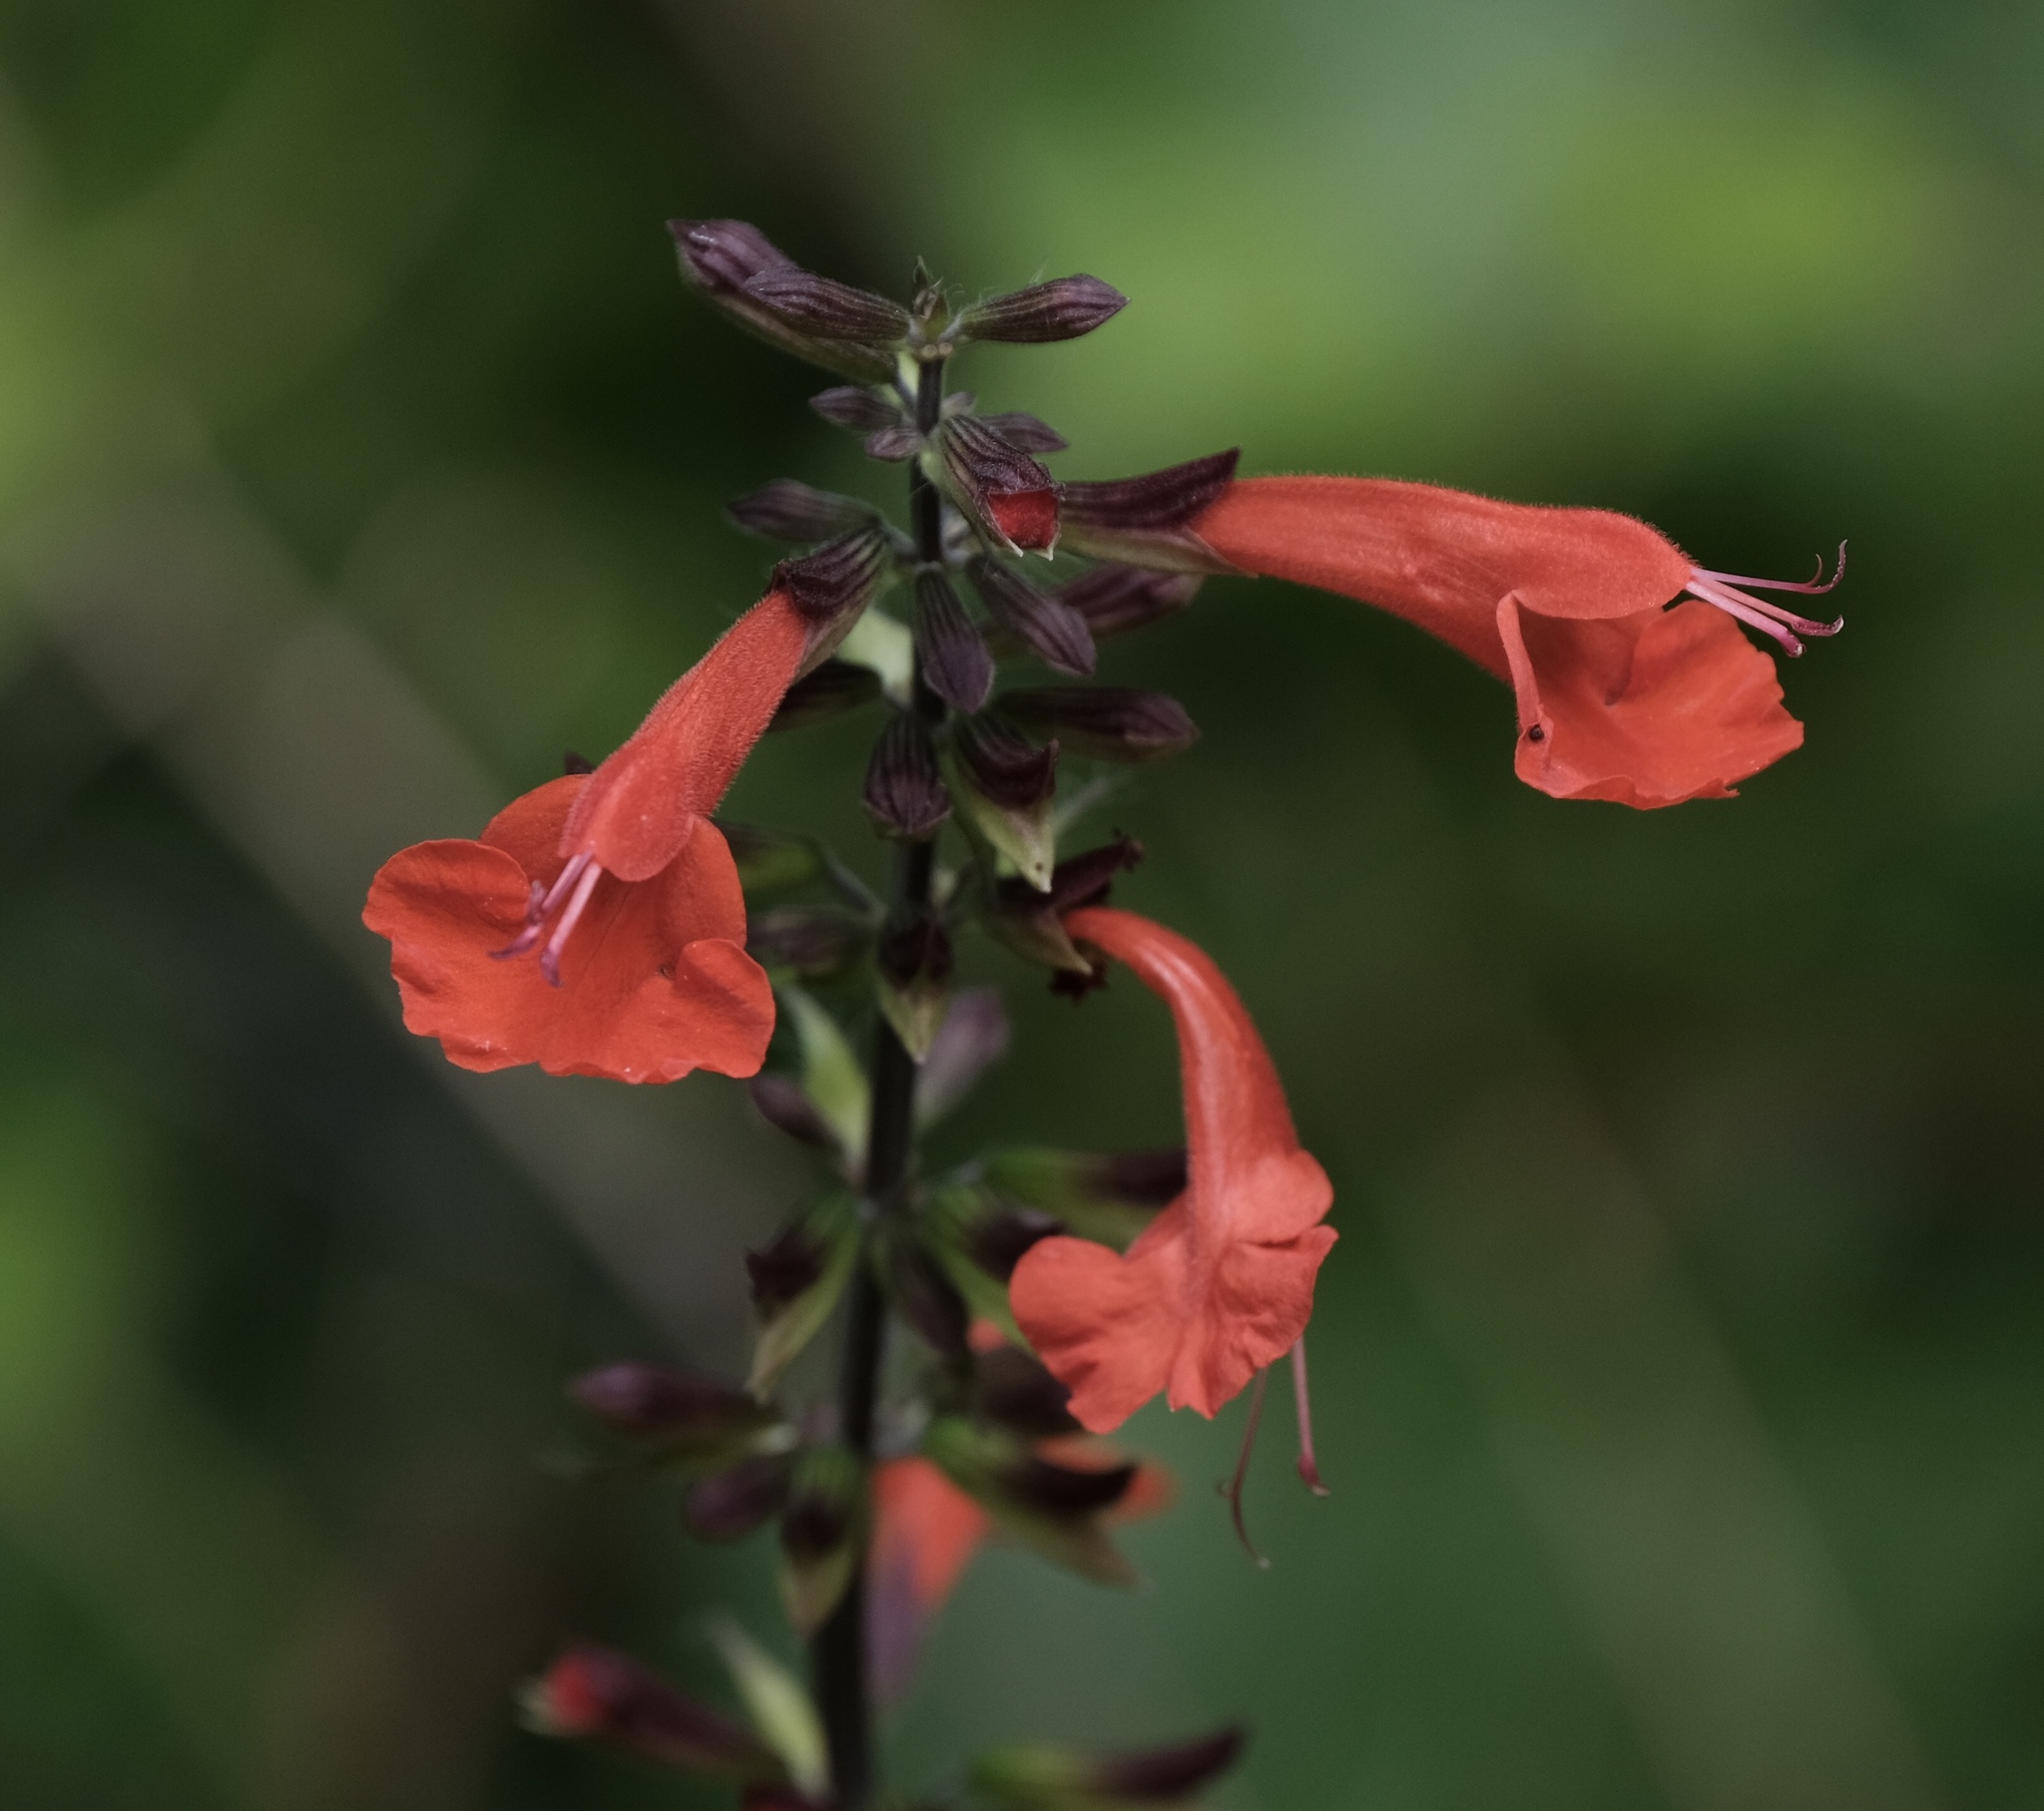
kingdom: Plantae
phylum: Tracheophyta
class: Magnoliopsida
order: Lamiales
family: Lamiaceae
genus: Salvia
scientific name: Salvia coccinea
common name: Blood sage
